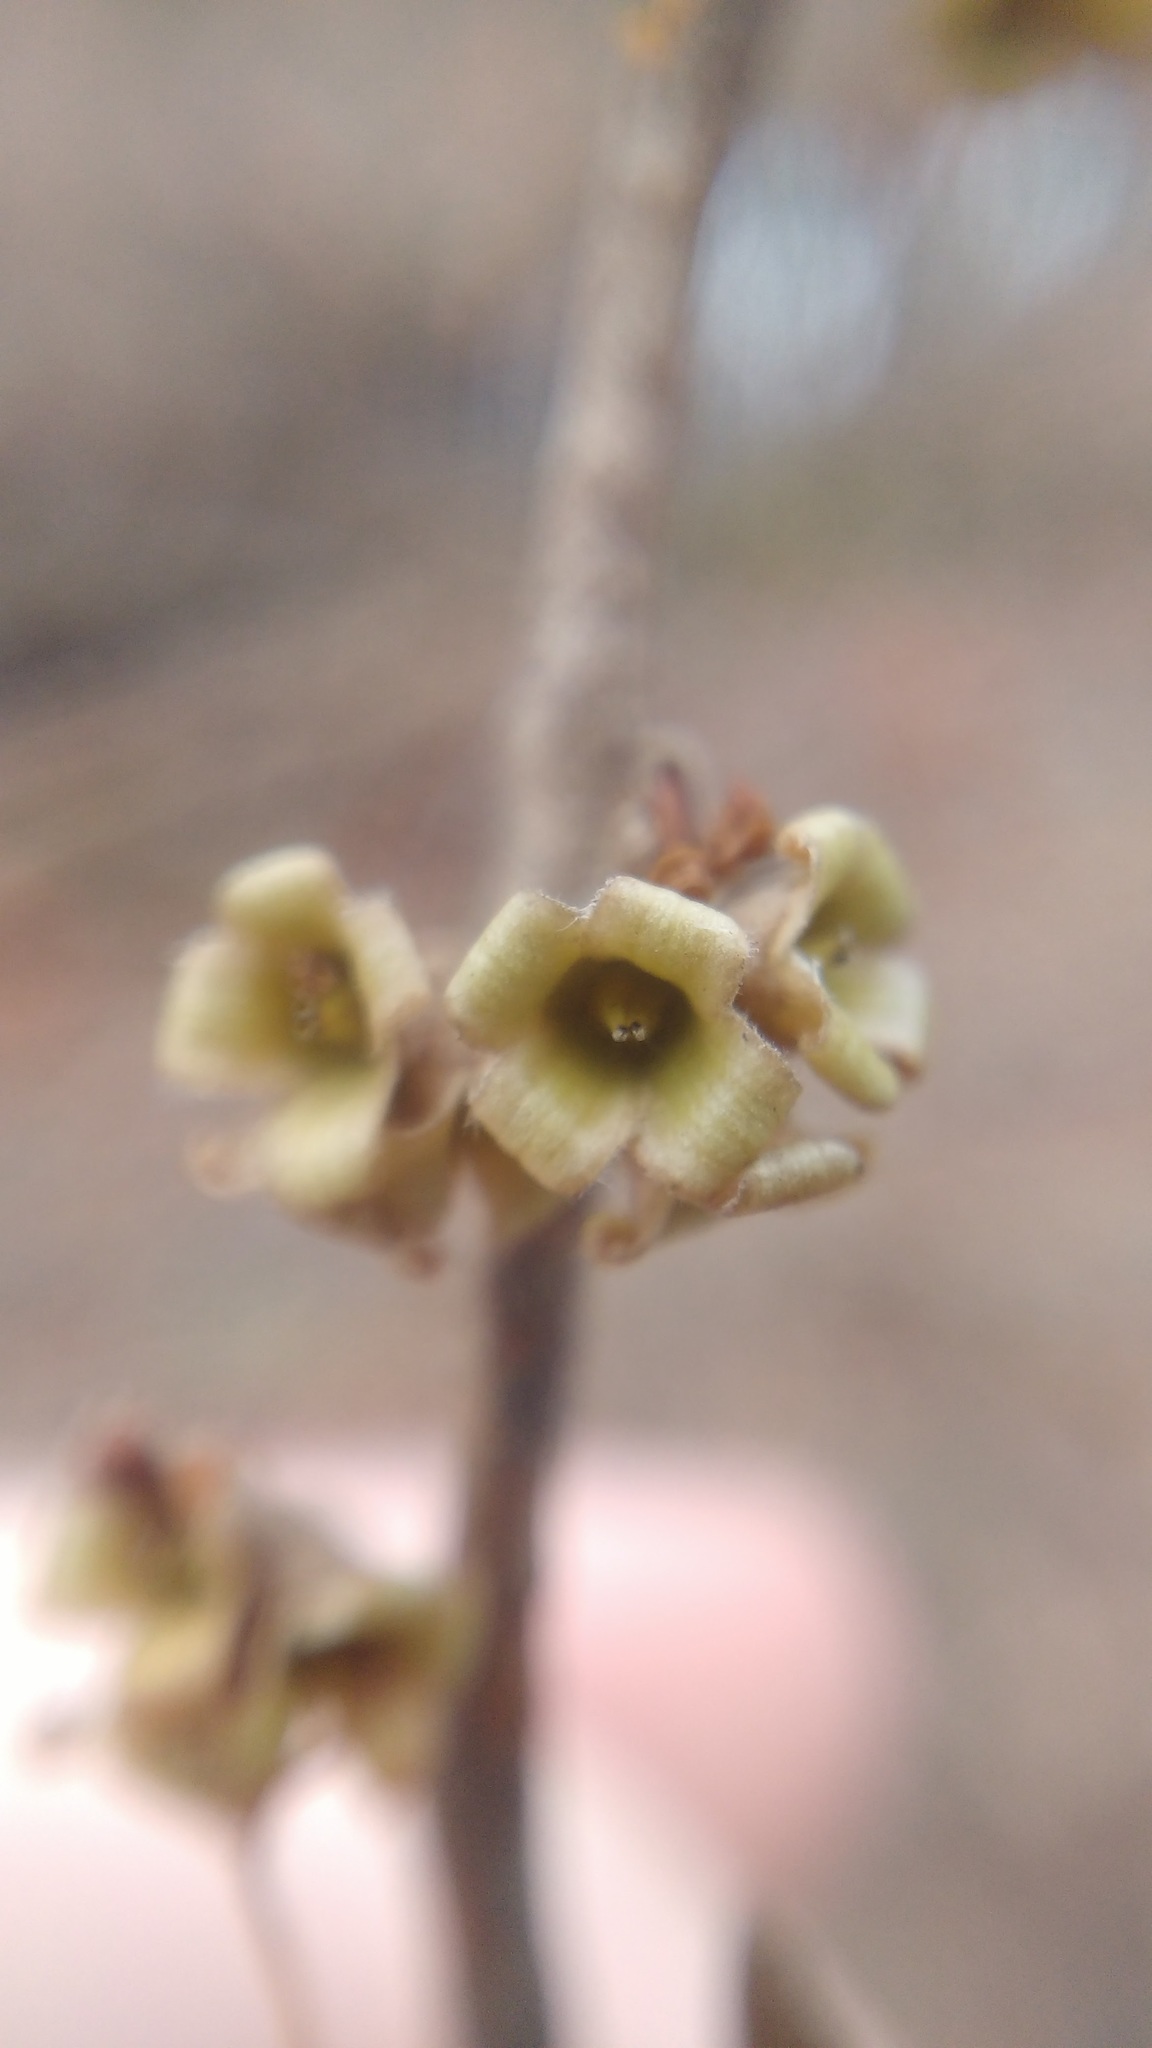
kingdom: Plantae
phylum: Tracheophyta
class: Magnoliopsida
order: Saxifragales
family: Hamamelidaceae
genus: Hamamelis
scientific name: Hamamelis virginiana
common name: Witch-hazel
